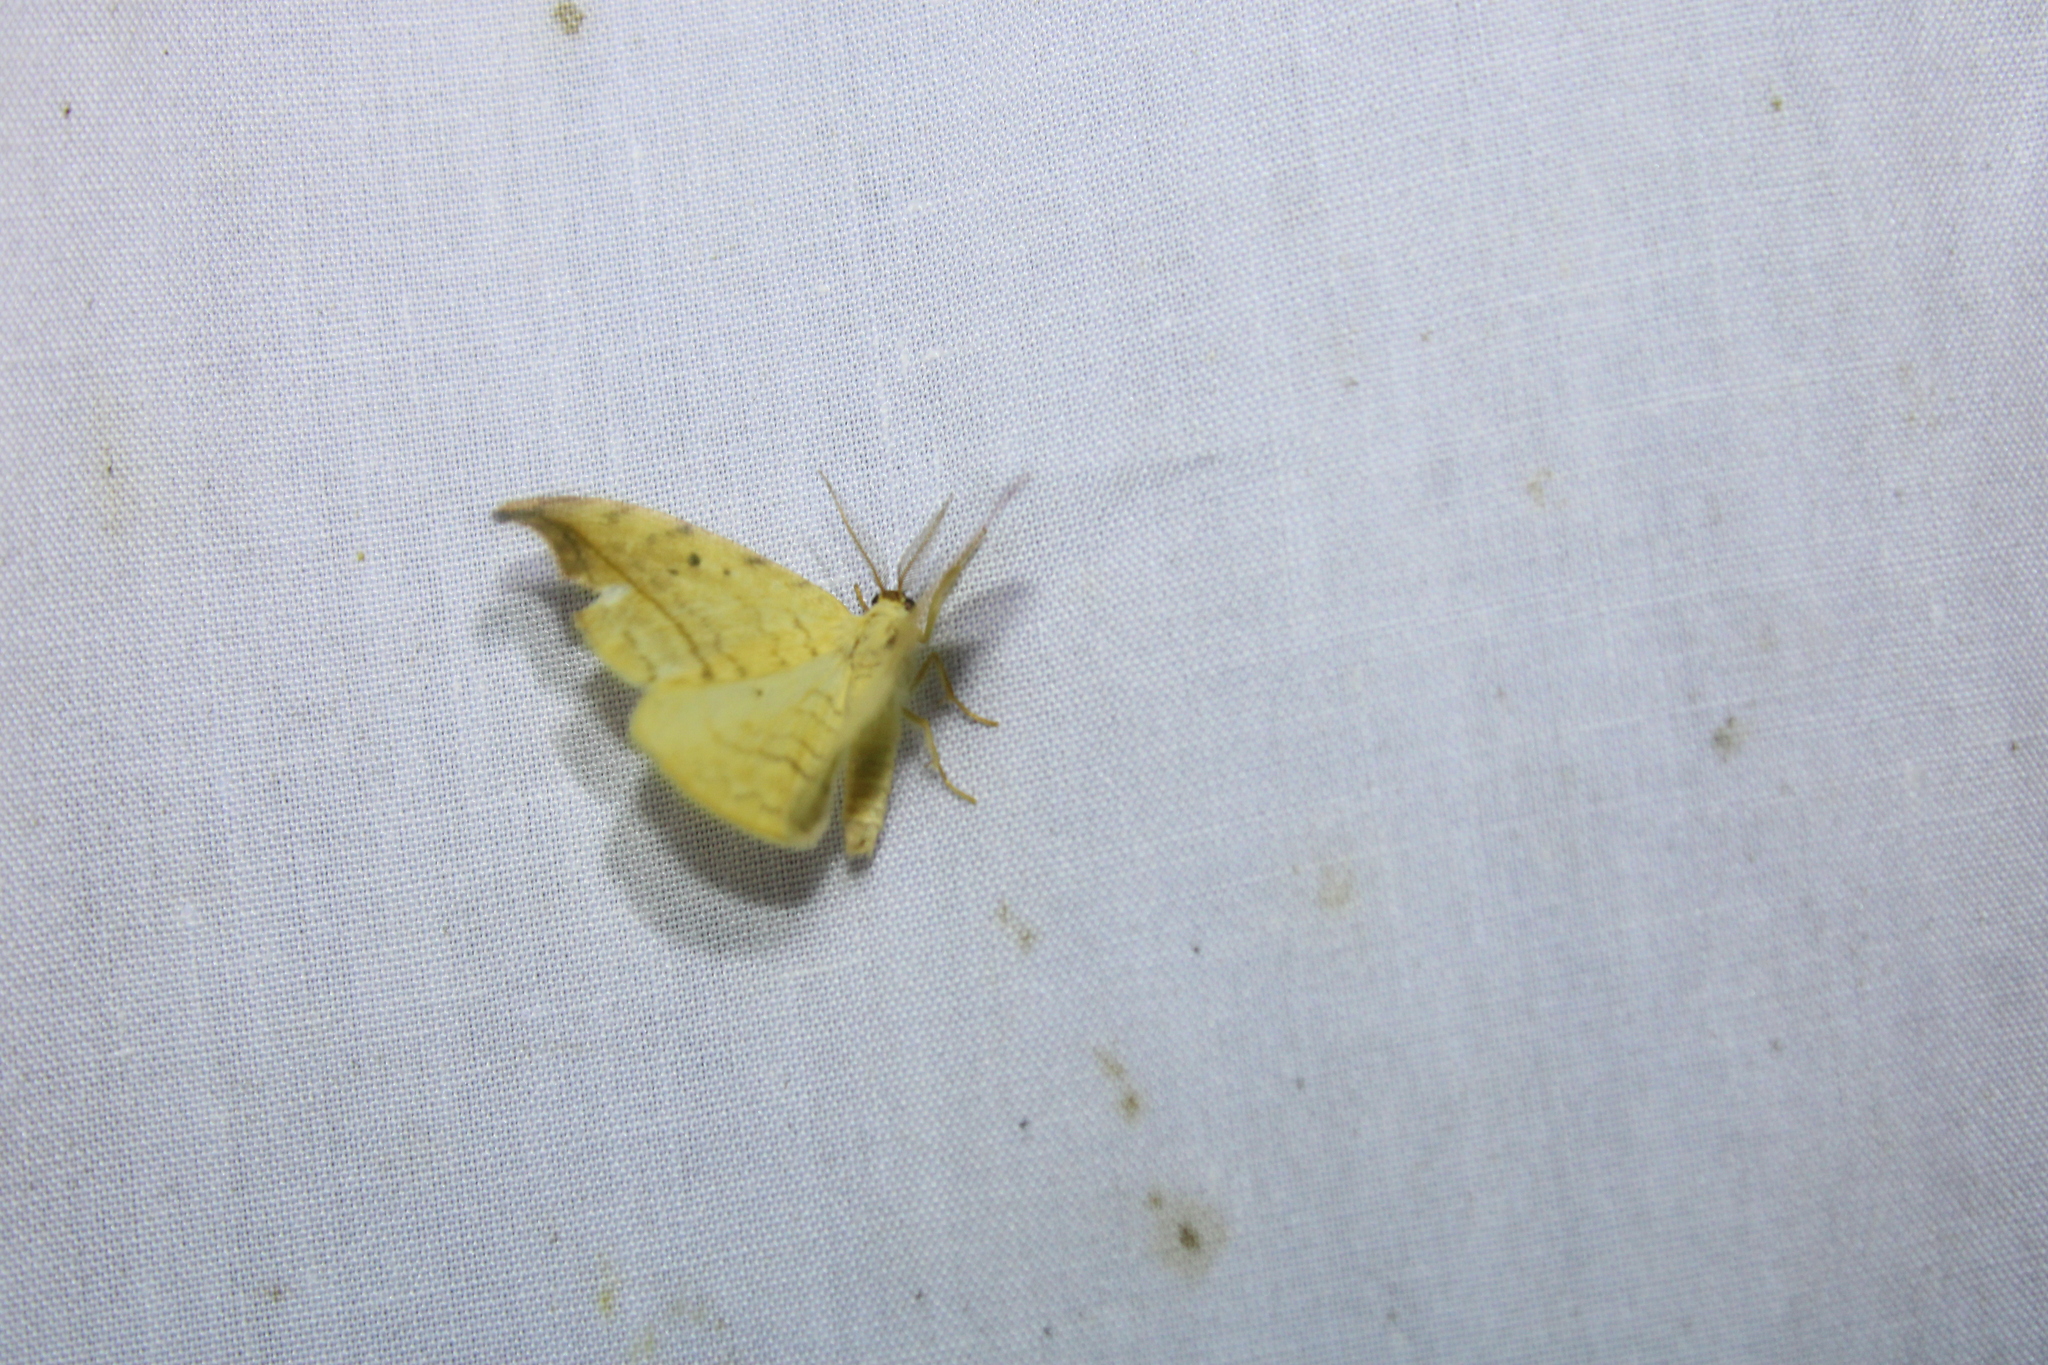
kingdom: Animalia
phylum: Arthropoda
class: Insecta
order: Lepidoptera
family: Drepanidae
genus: Drepana
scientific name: Drepana arcuata
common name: Arched hooktip moth
